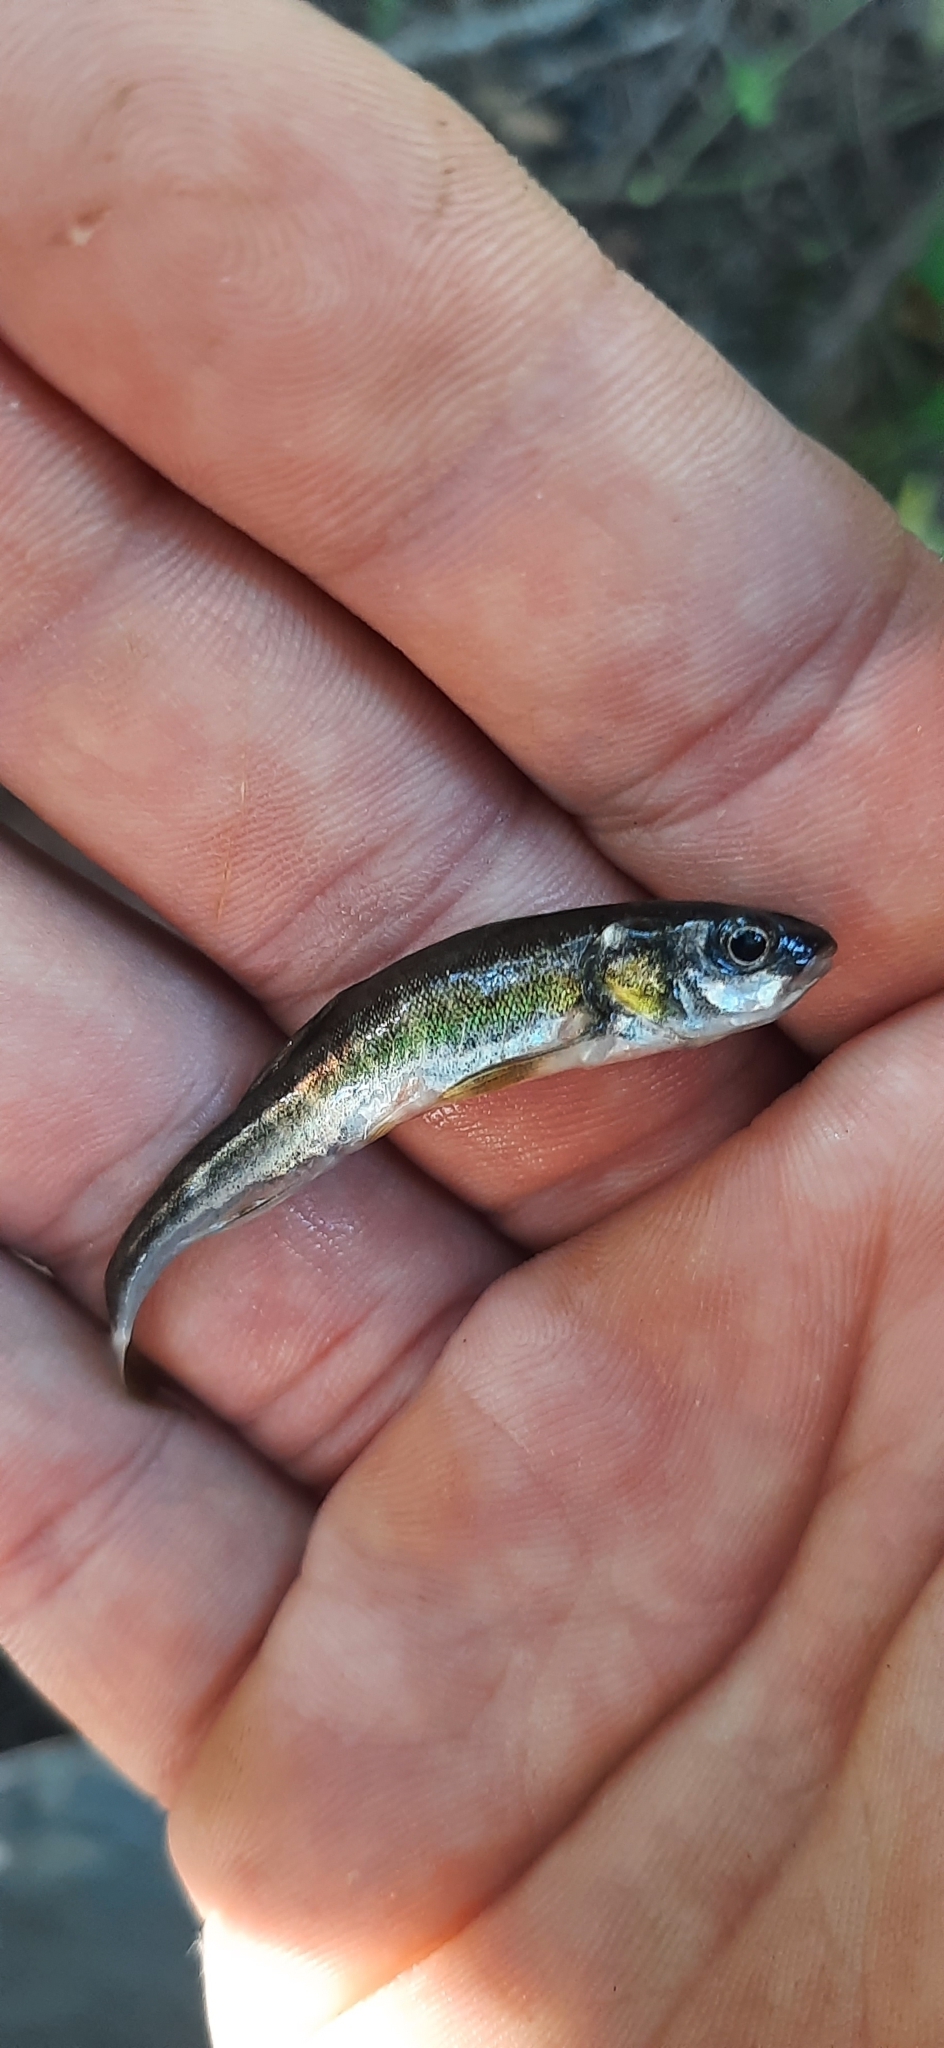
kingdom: Animalia
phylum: Chordata
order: Cypriniformes
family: Cyprinidae
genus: Phoxinus
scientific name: Phoxinus phoxinus
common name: Minnow
